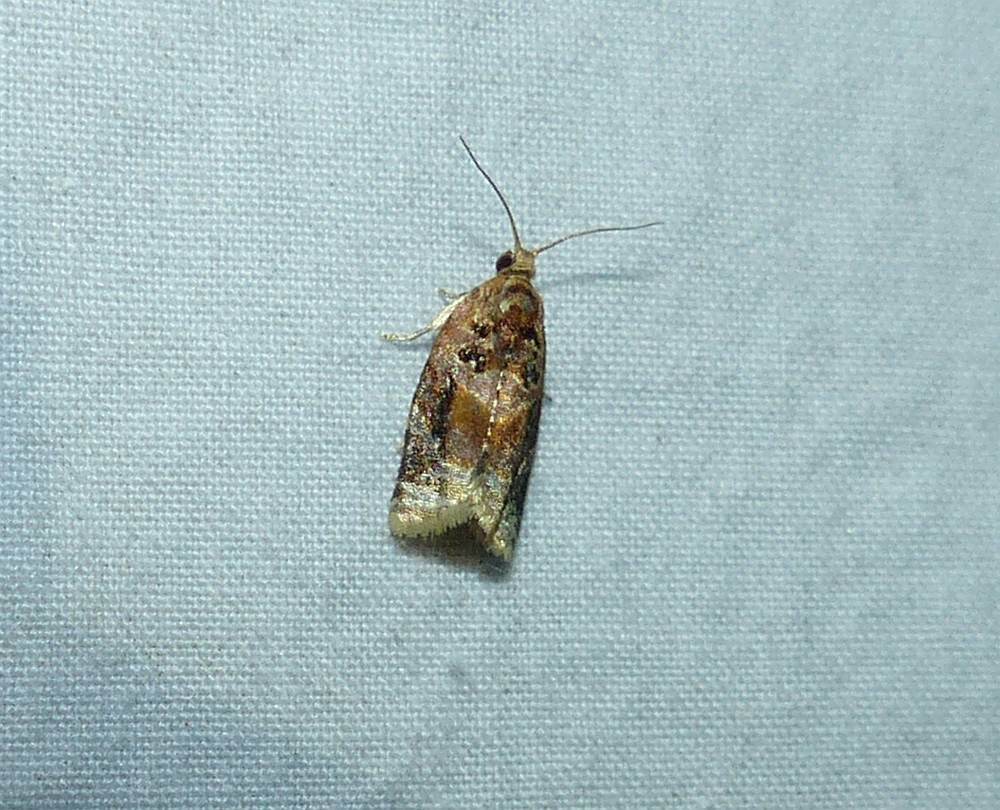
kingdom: Animalia
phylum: Arthropoda
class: Insecta
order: Lepidoptera
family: Tortricidae
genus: Argyrotaenia
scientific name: Argyrotaenia velutinana
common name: Red-banded leafroller moth
